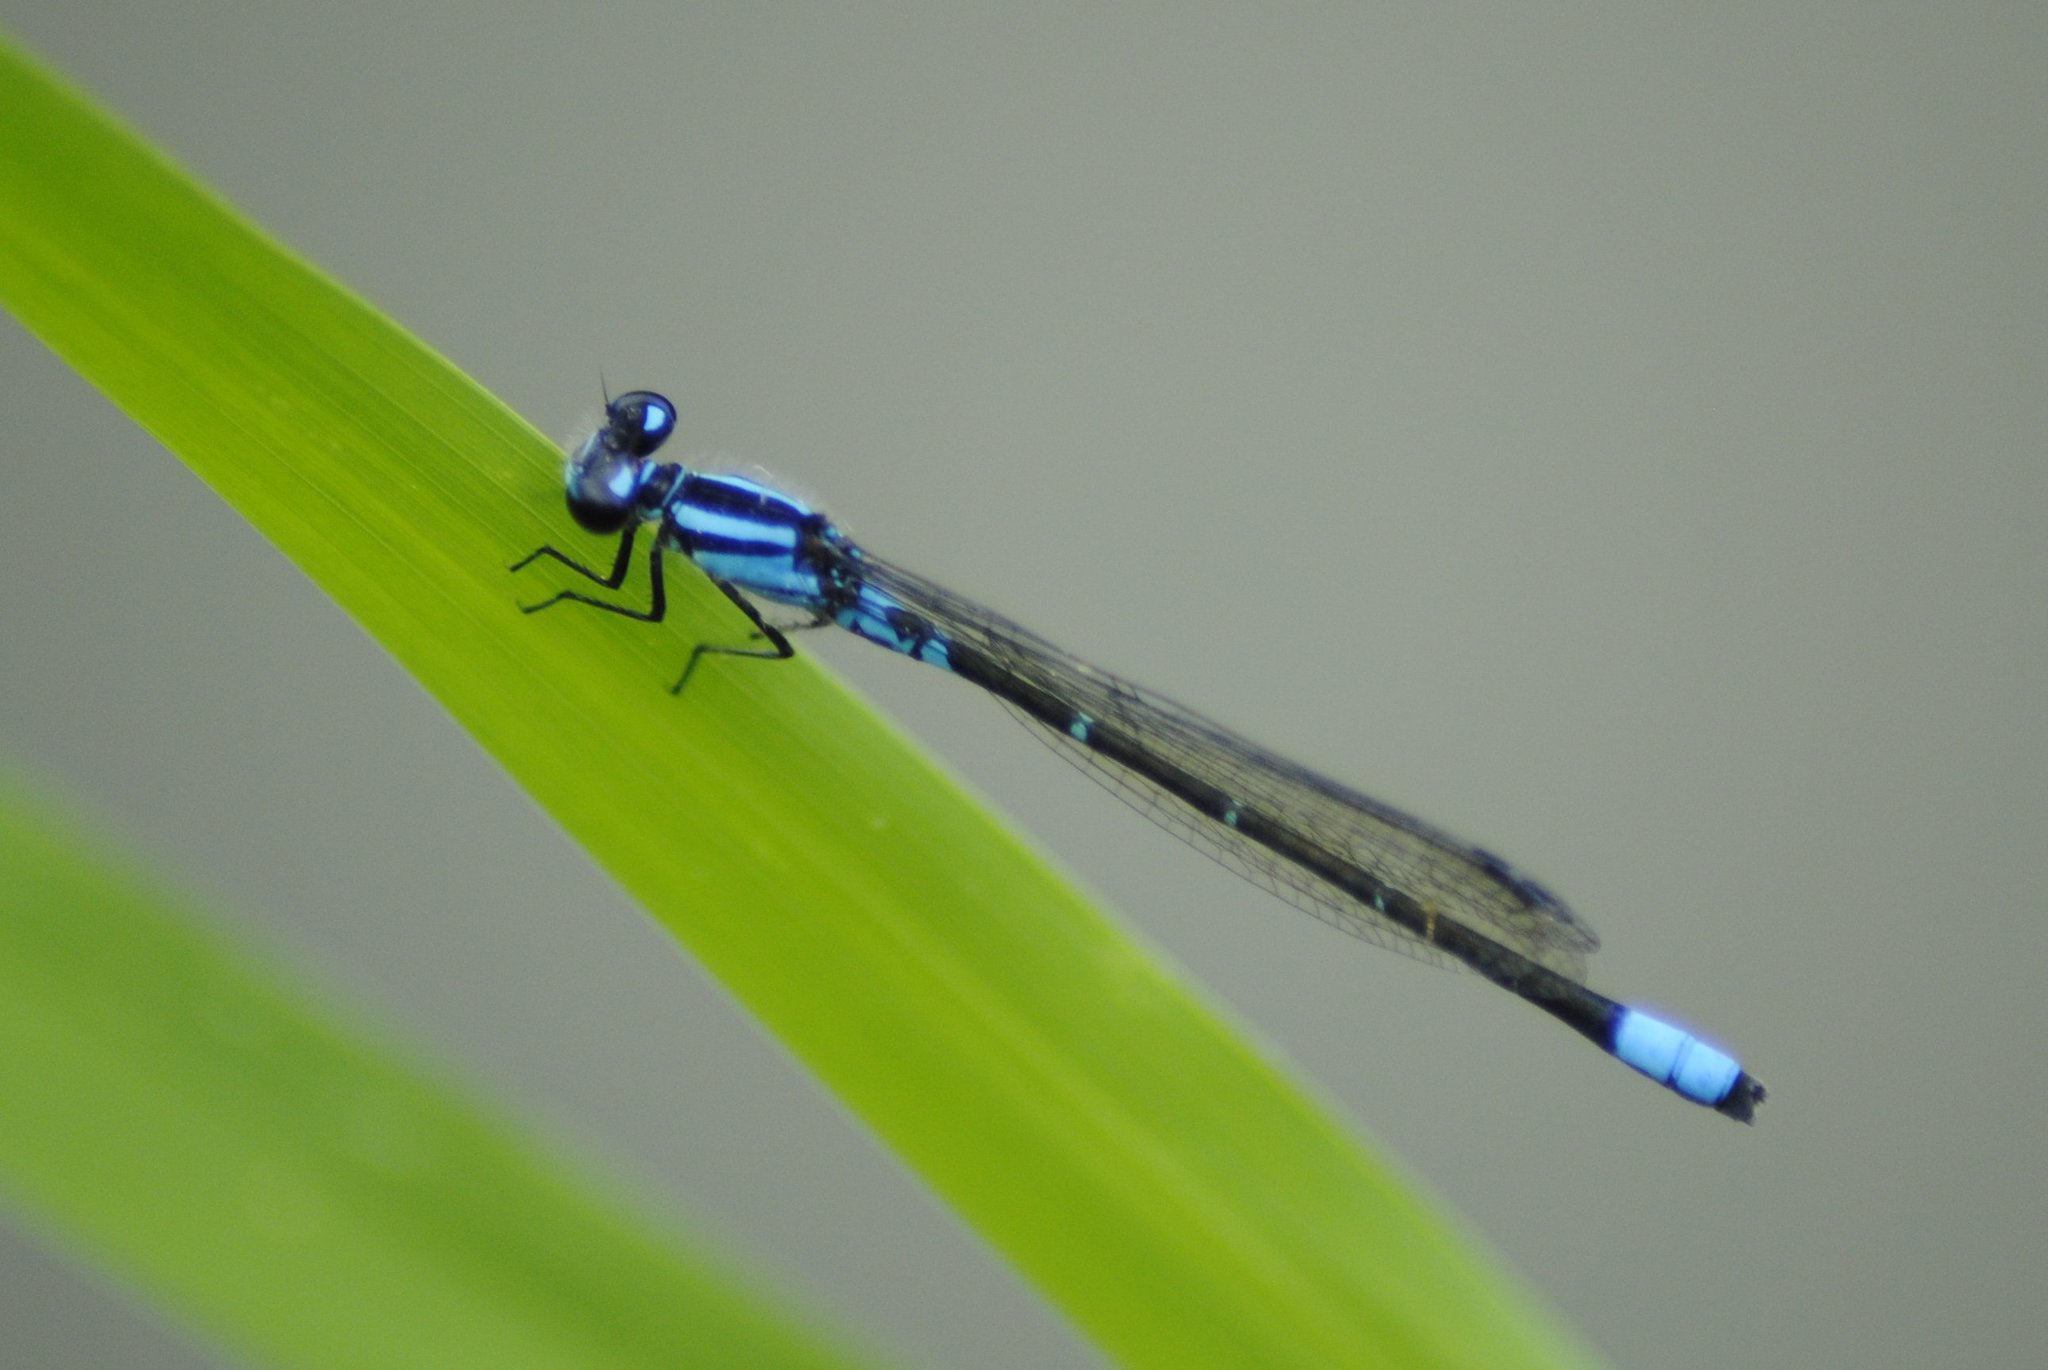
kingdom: Animalia
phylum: Arthropoda
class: Insecta
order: Odonata
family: Coenagrionidae
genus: Enallagma
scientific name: Enallagma geminatum
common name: Skimming bluet
